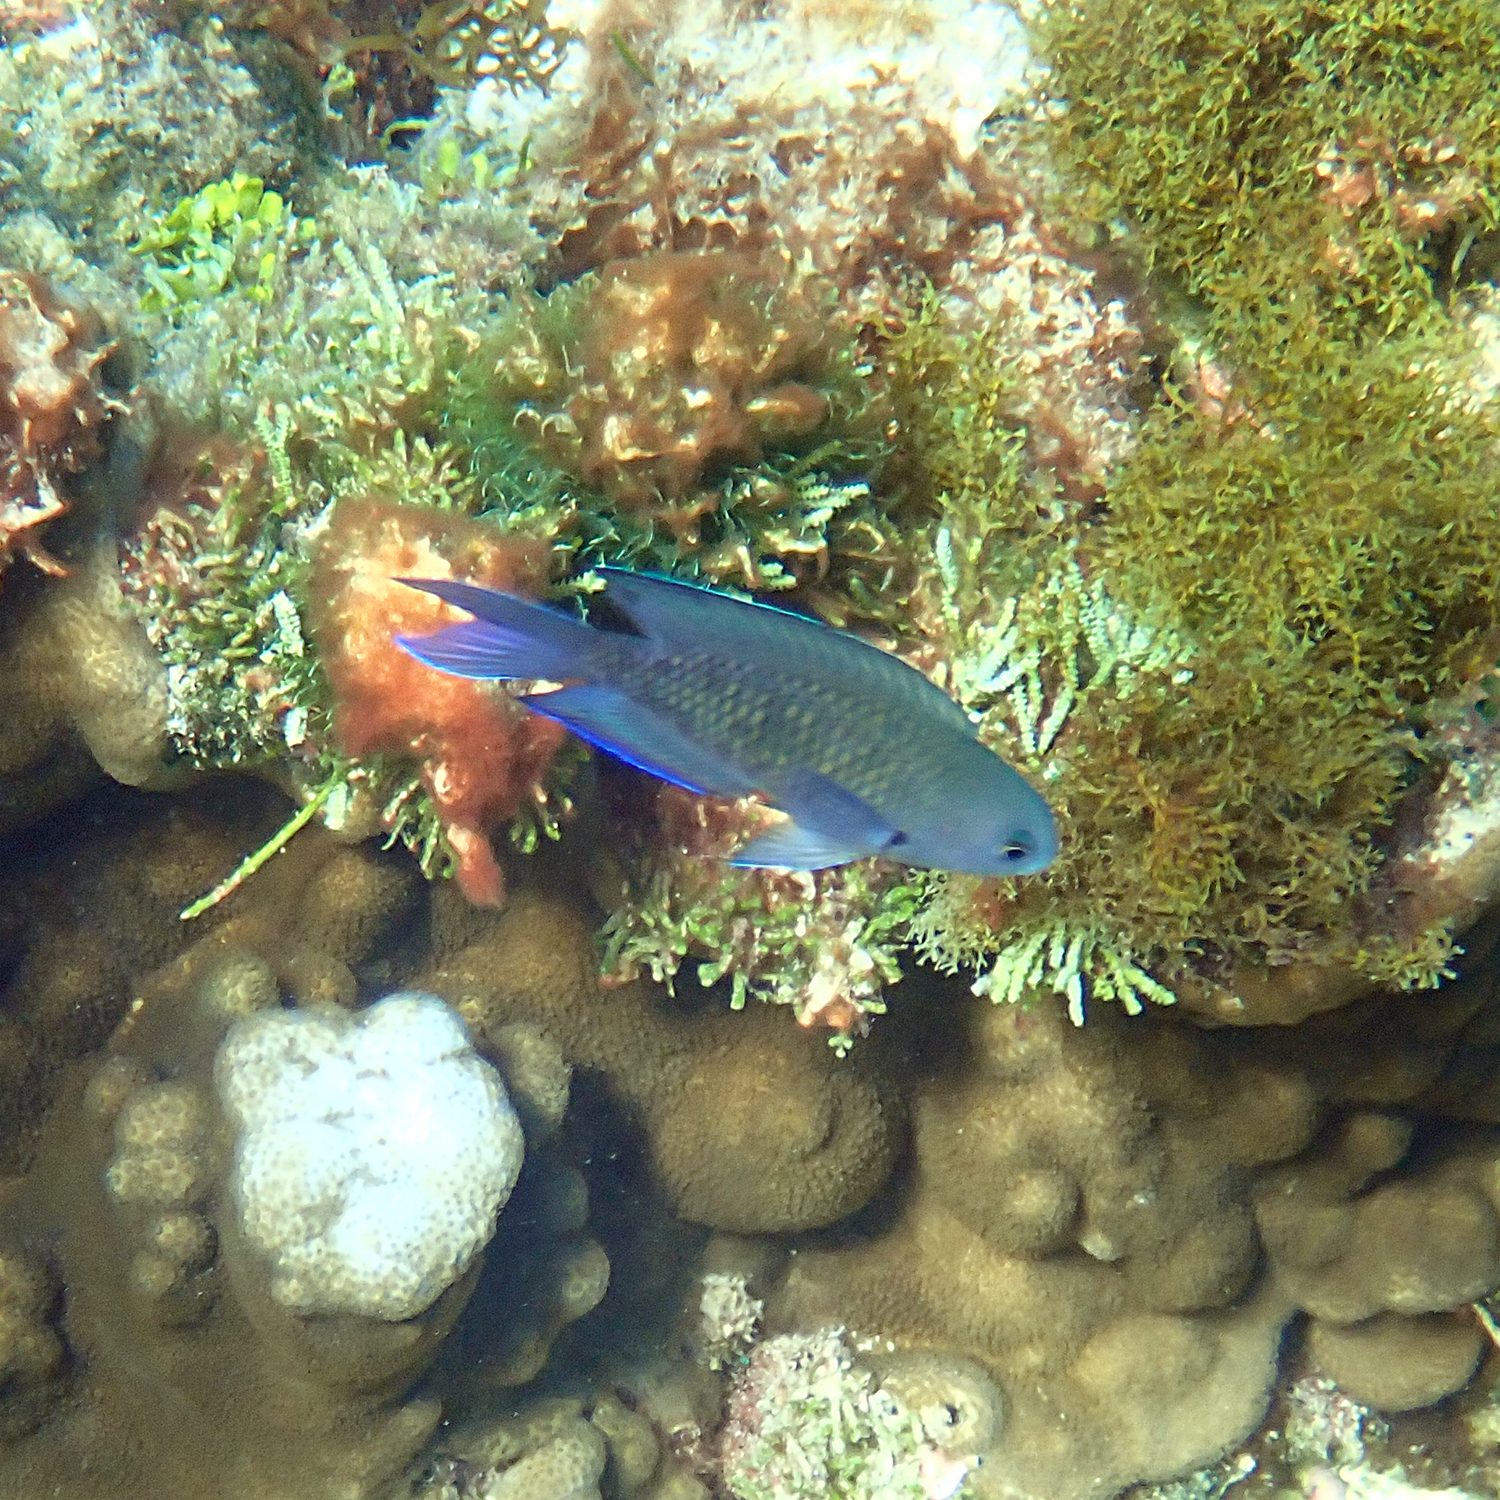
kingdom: Animalia
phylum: Chordata
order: Perciformes
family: Pomacentridae
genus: Chrysiptera
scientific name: Chrysiptera notialis
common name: Southern demoiselle
